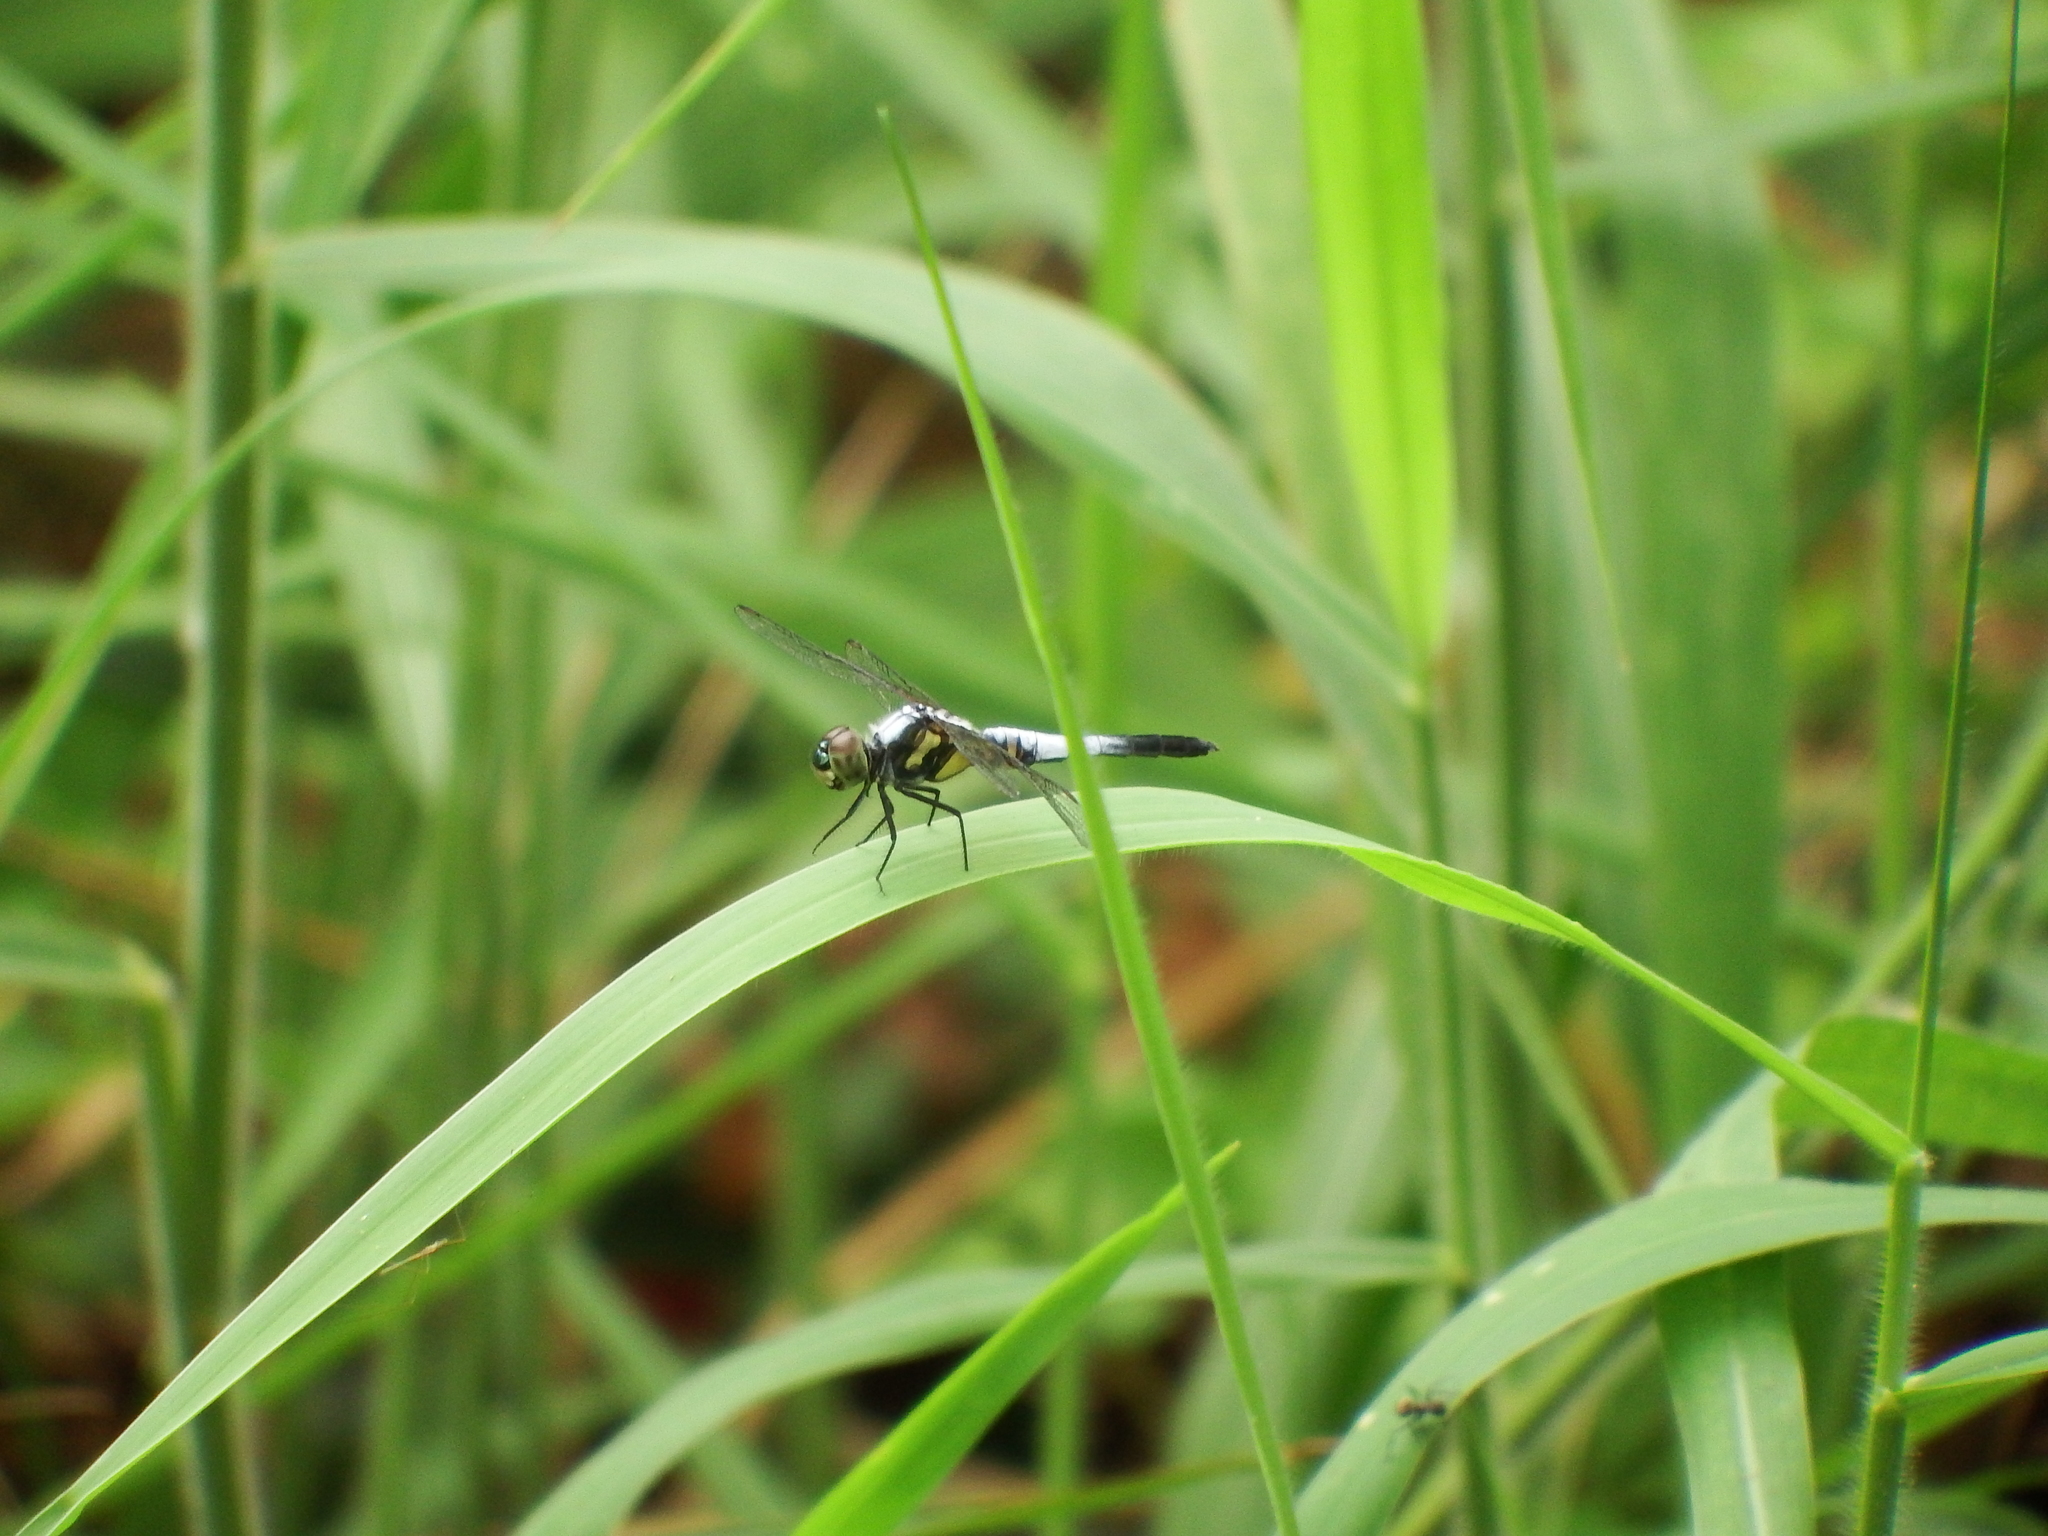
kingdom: Animalia
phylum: Arthropoda
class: Insecta
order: Odonata
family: Libellulidae
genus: Brachydiplax
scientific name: Brachydiplax chalybea
